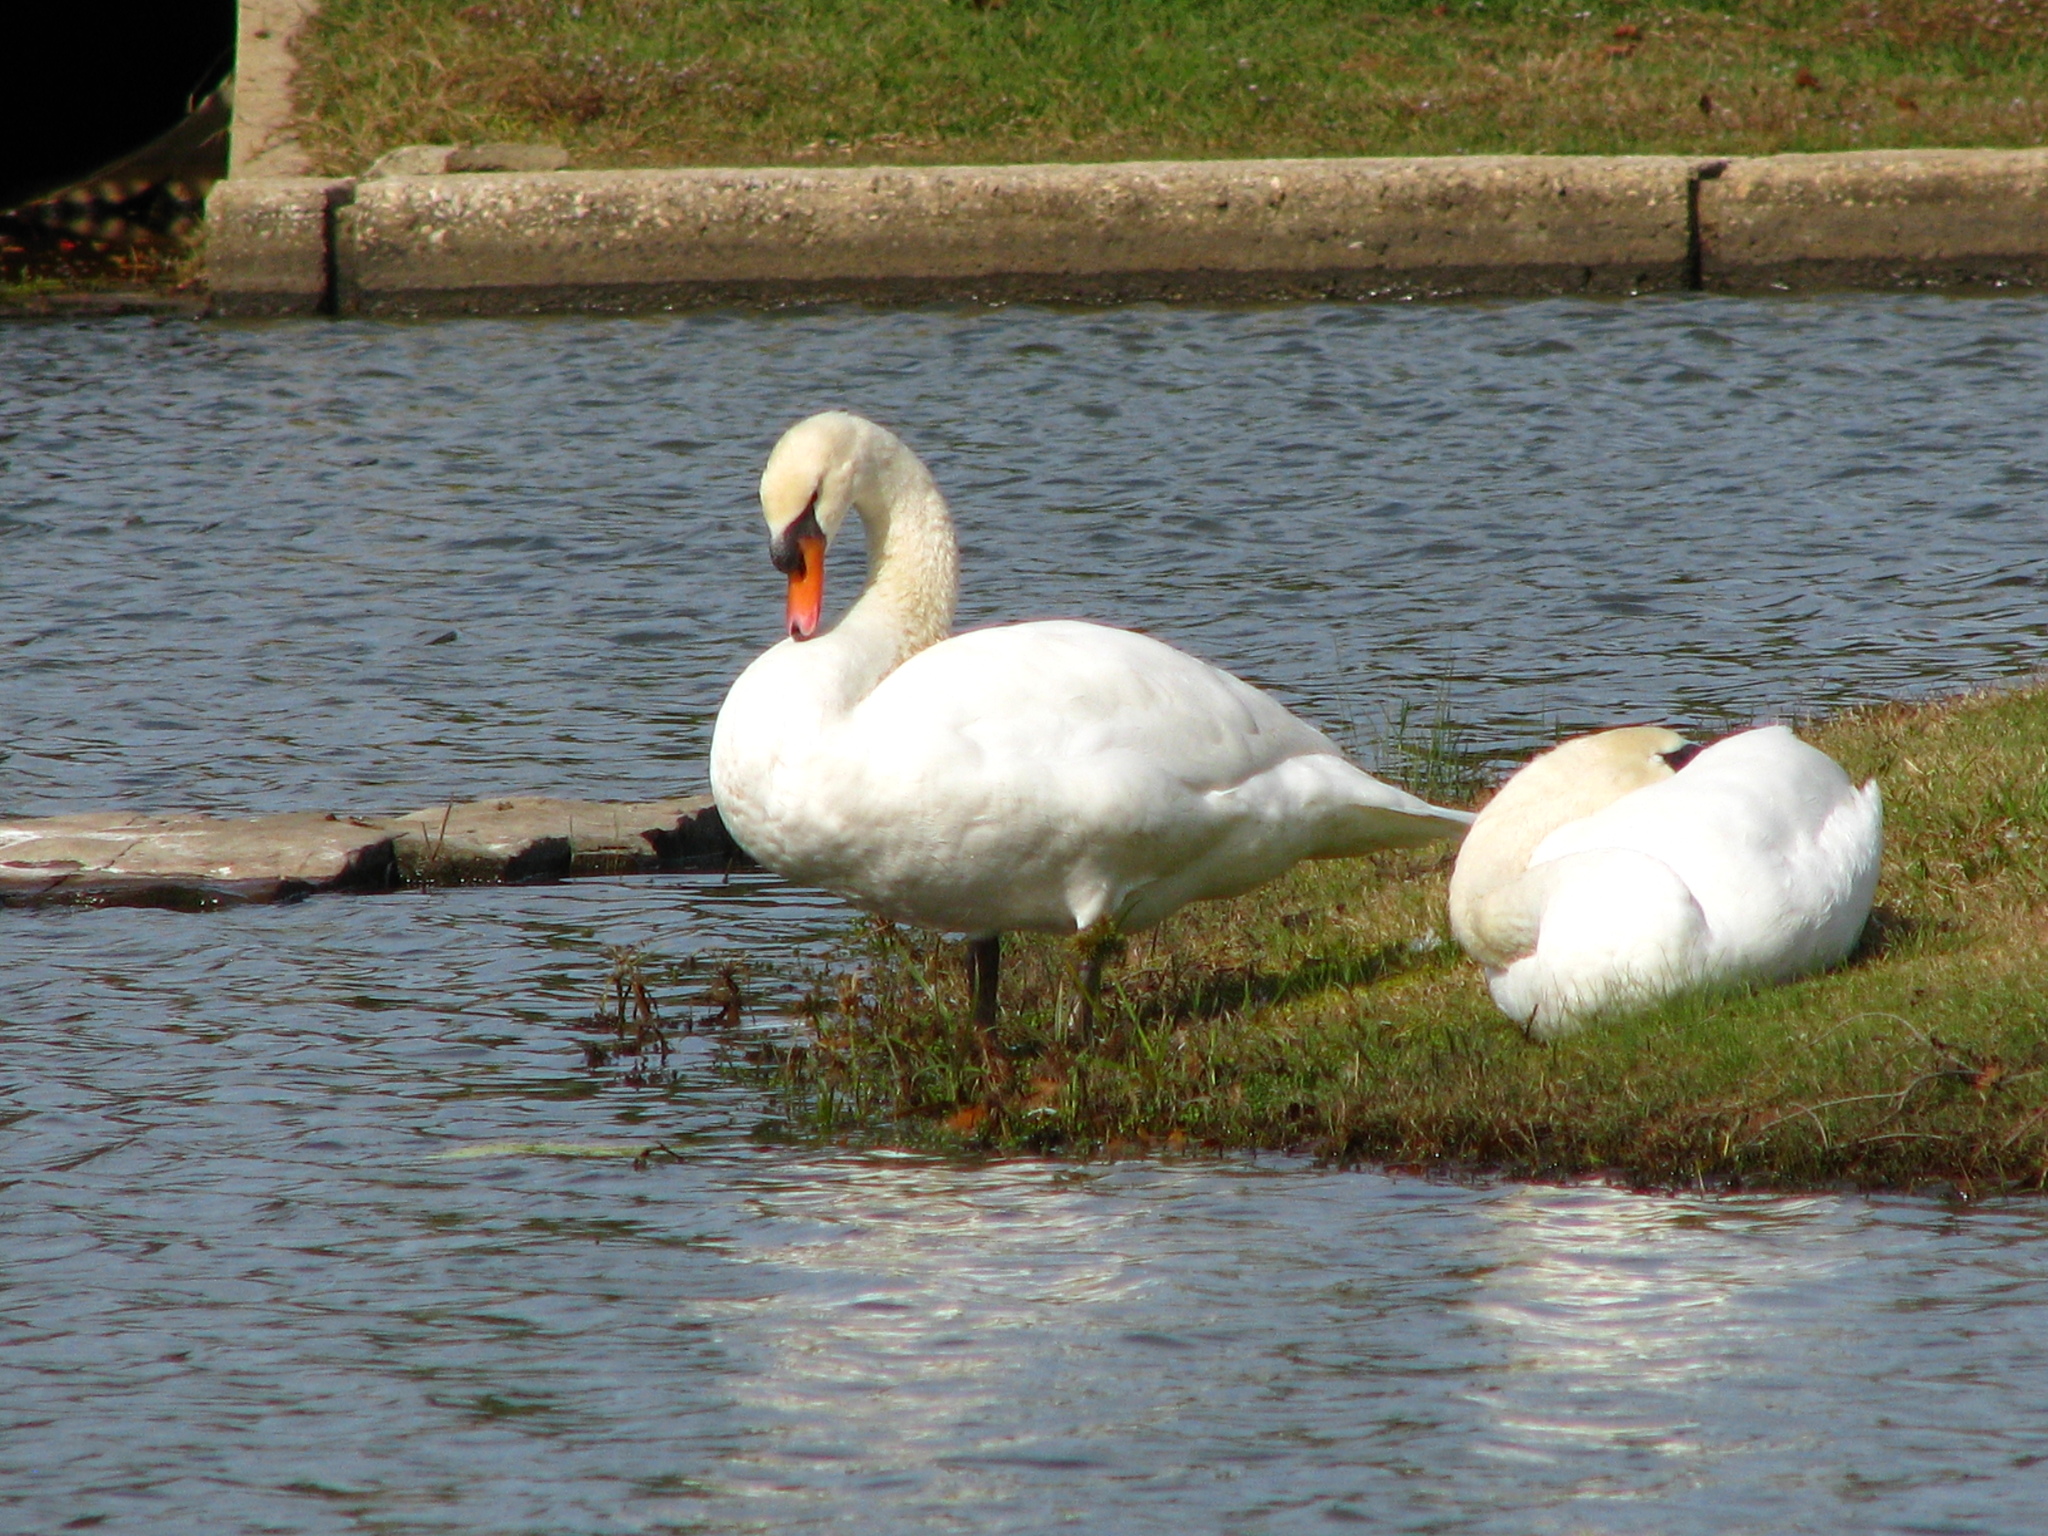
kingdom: Animalia
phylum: Chordata
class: Aves
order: Anseriformes
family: Anatidae
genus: Cygnus
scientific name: Cygnus olor
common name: Mute swan
